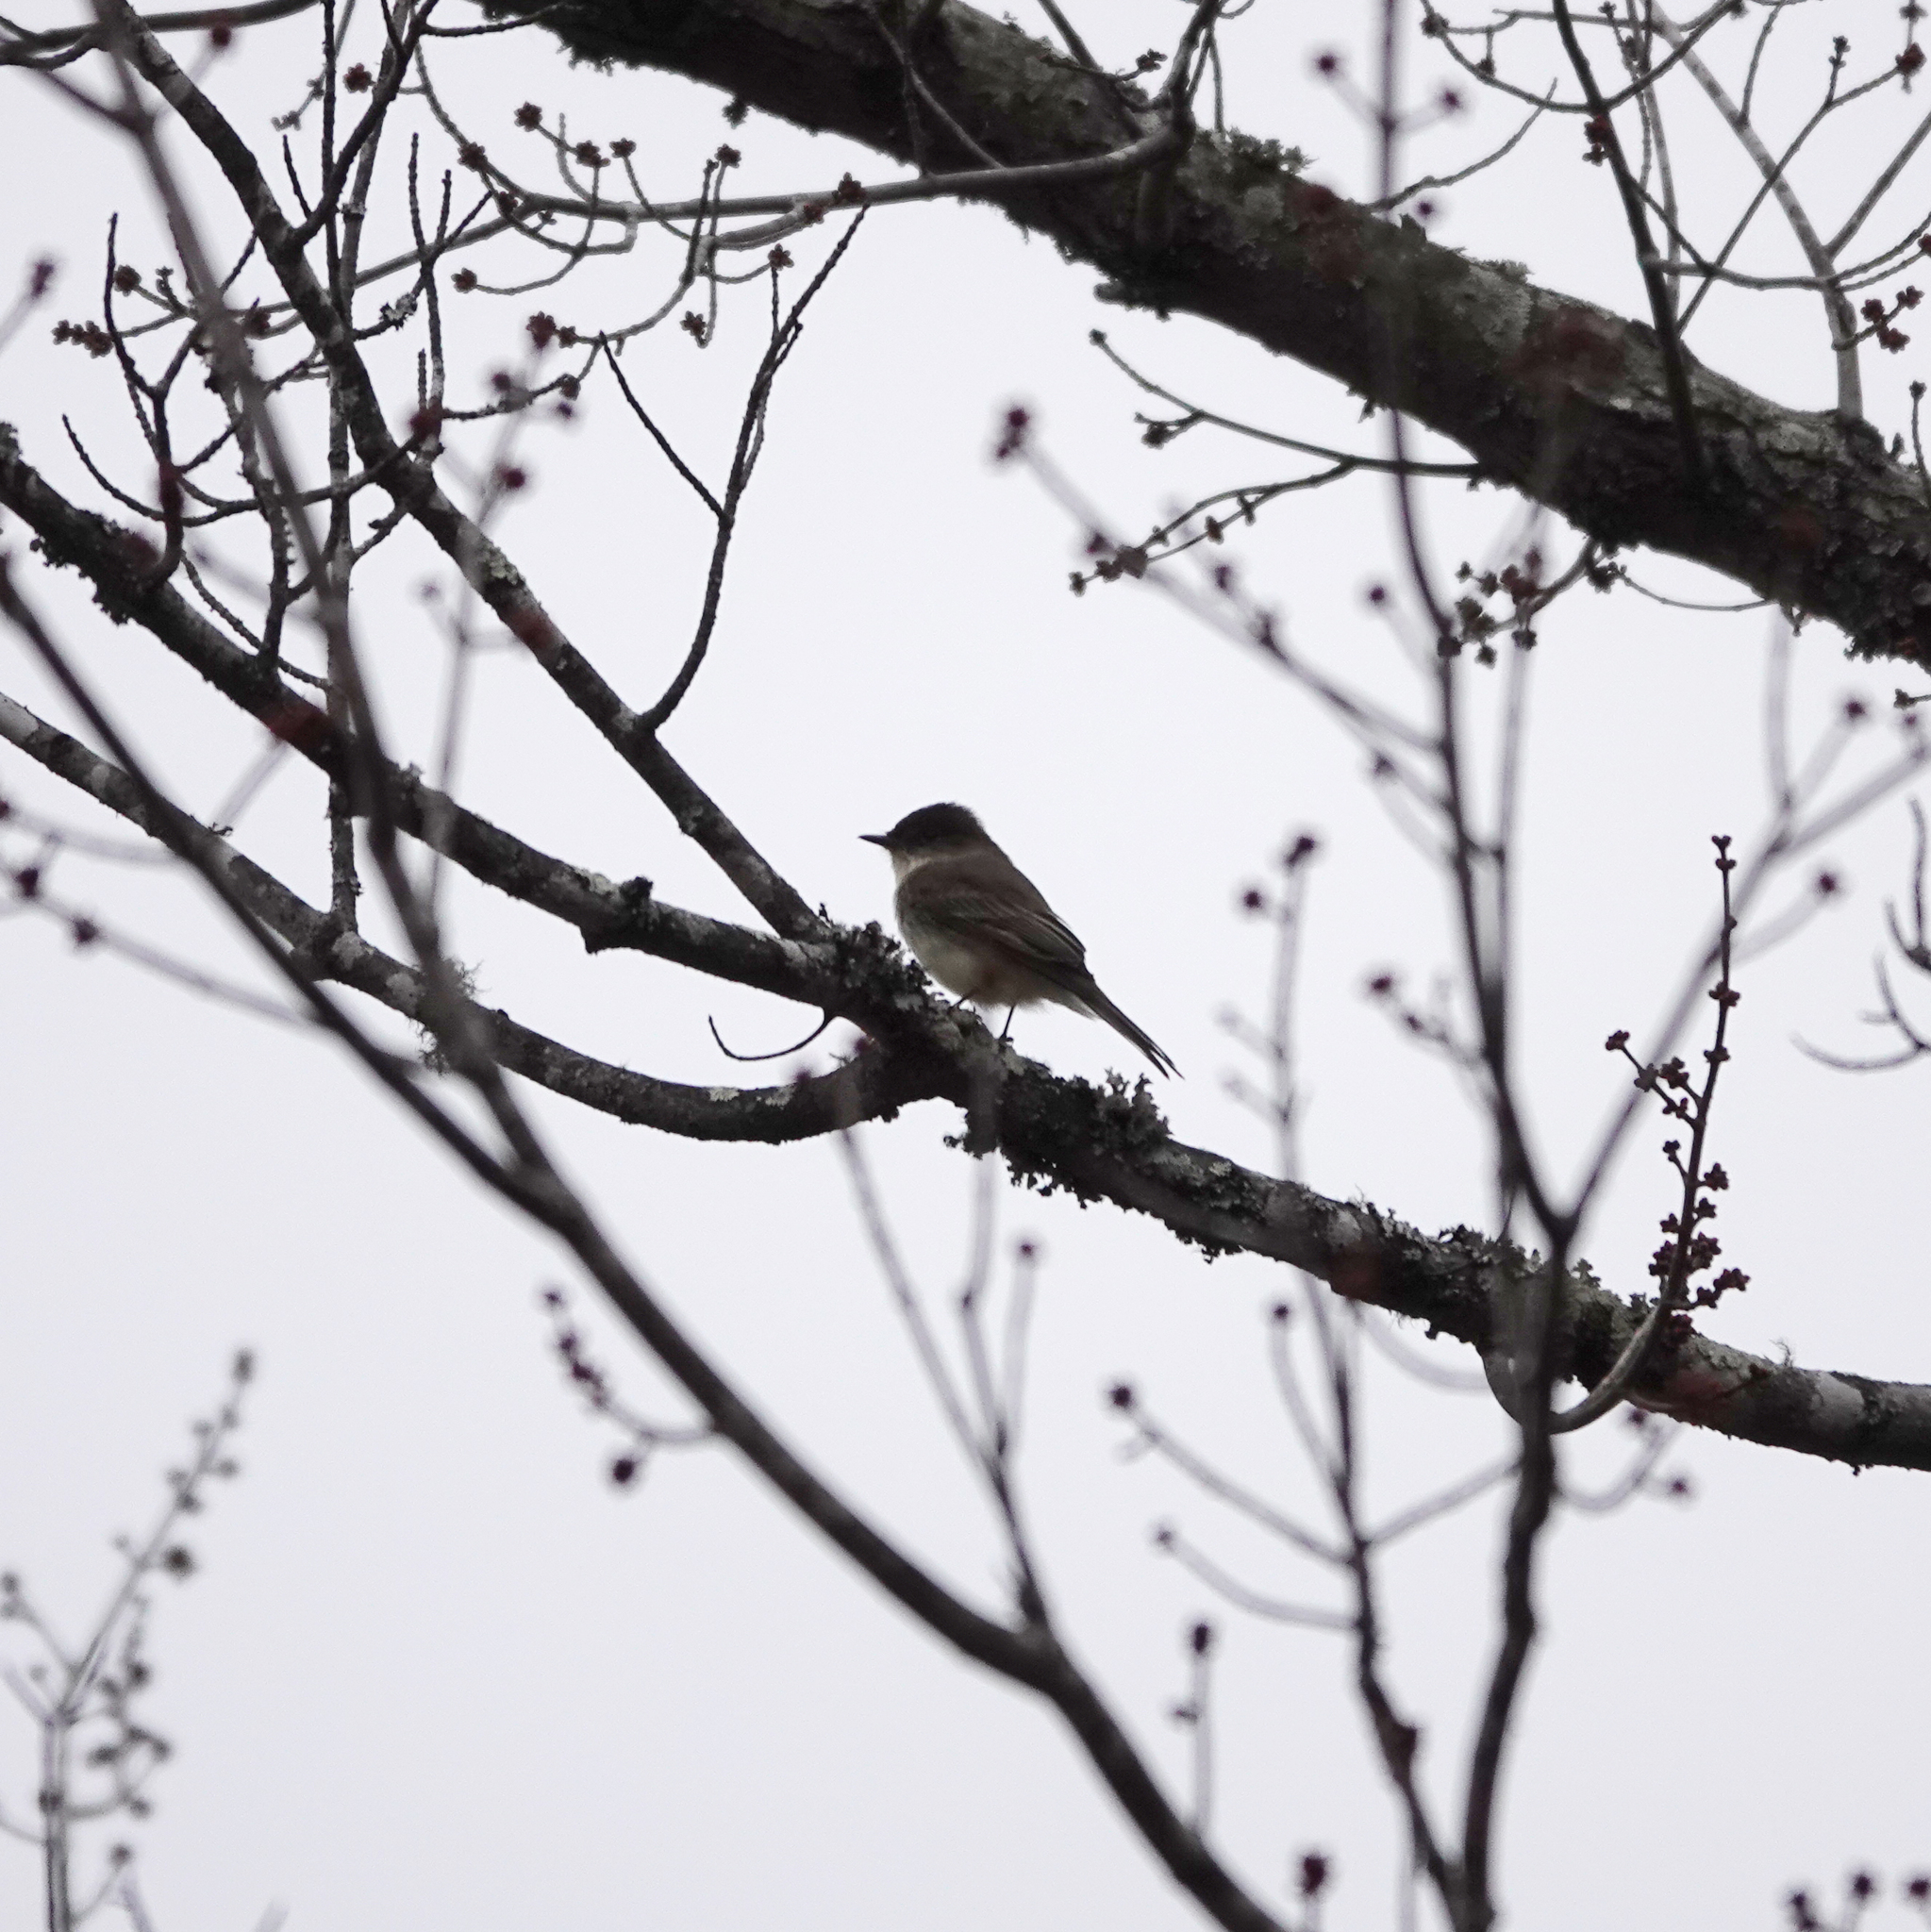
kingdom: Animalia
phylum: Chordata
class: Aves
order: Passeriformes
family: Tyrannidae
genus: Sayornis
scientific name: Sayornis phoebe
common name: Eastern phoebe
